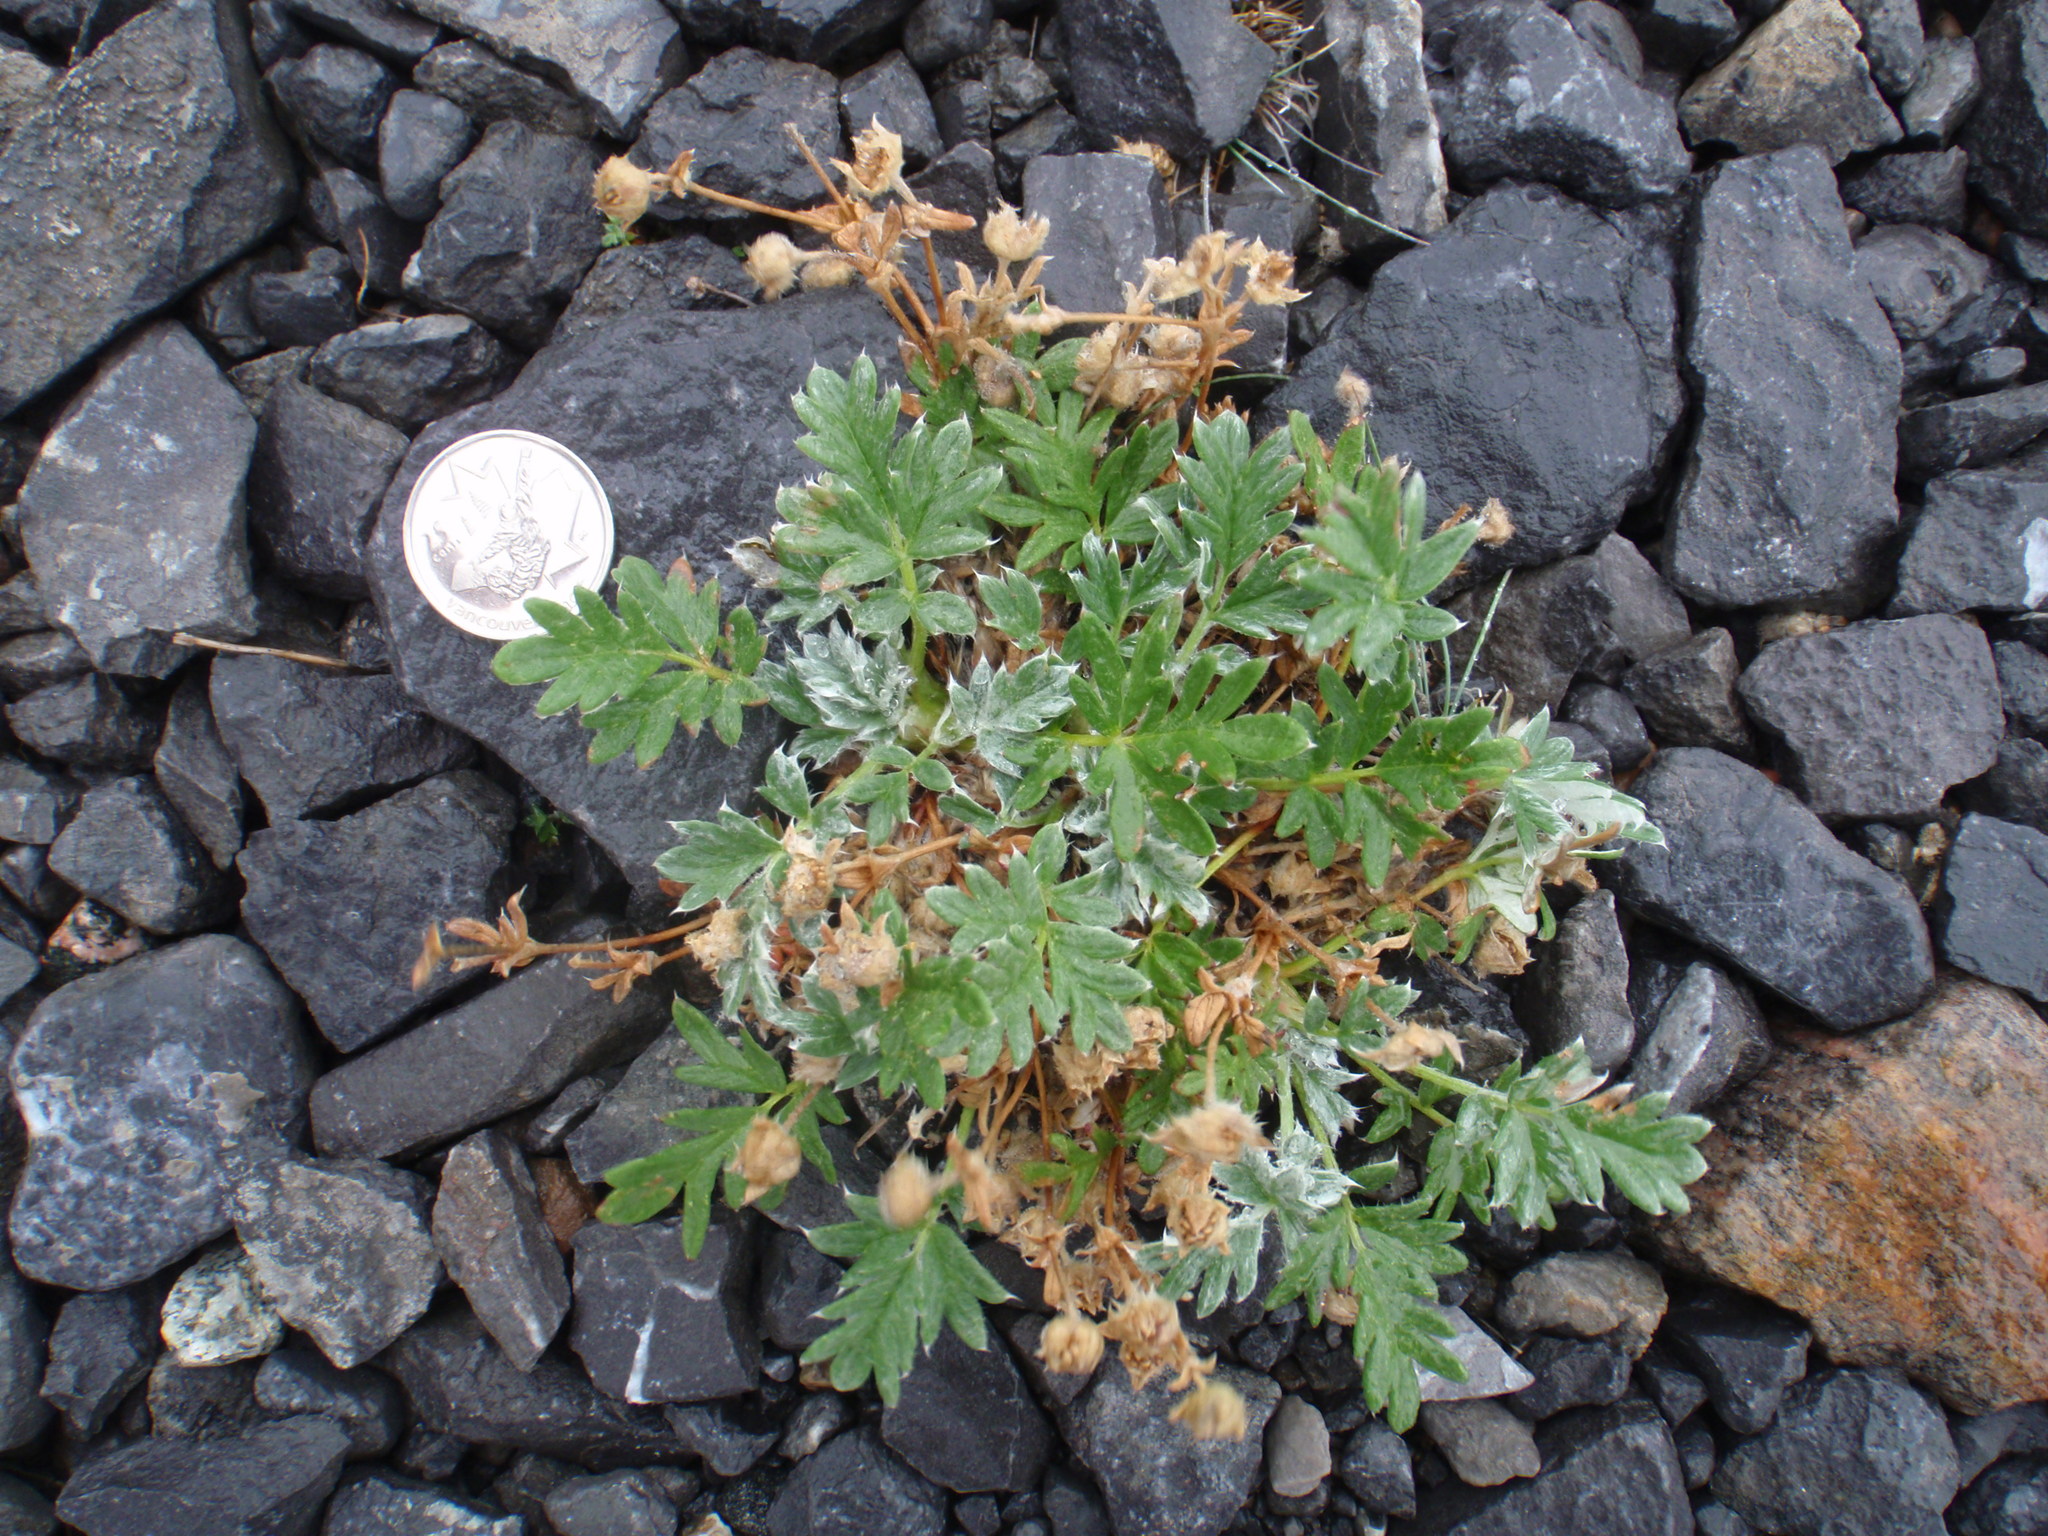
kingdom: Plantae
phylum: Tracheophyta
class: Magnoliopsida
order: Rosales
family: Rosaceae
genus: Potentilla
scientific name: Potentilla pulchella
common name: Pretty cinquefoil
